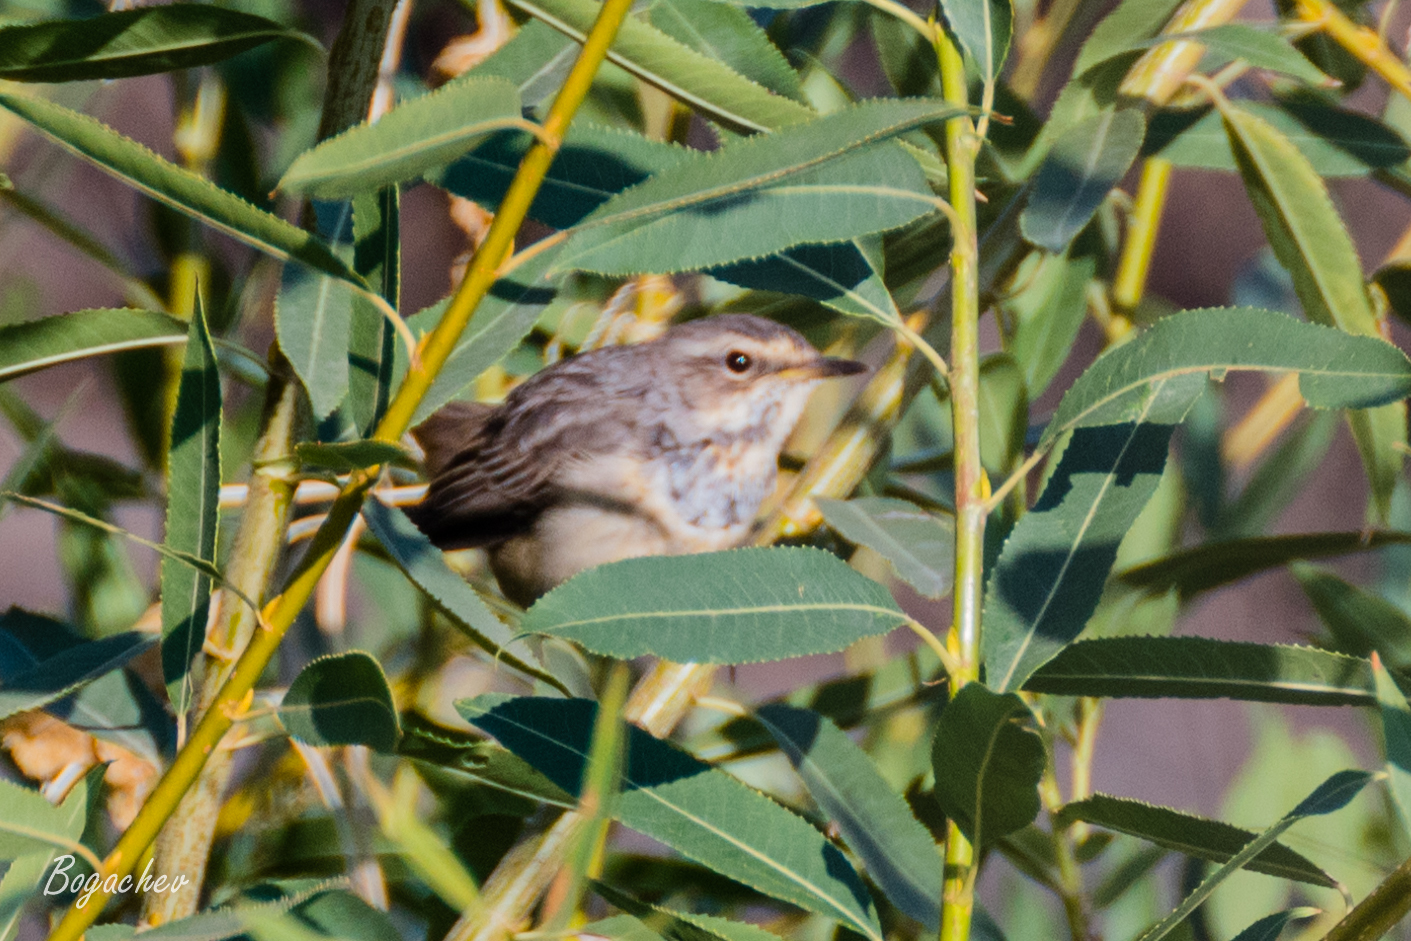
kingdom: Animalia
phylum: Chordata
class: Aves
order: Passeriformes
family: Muscicapidae
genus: Luscinia
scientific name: Luscinia svecica
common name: Bluethroat
